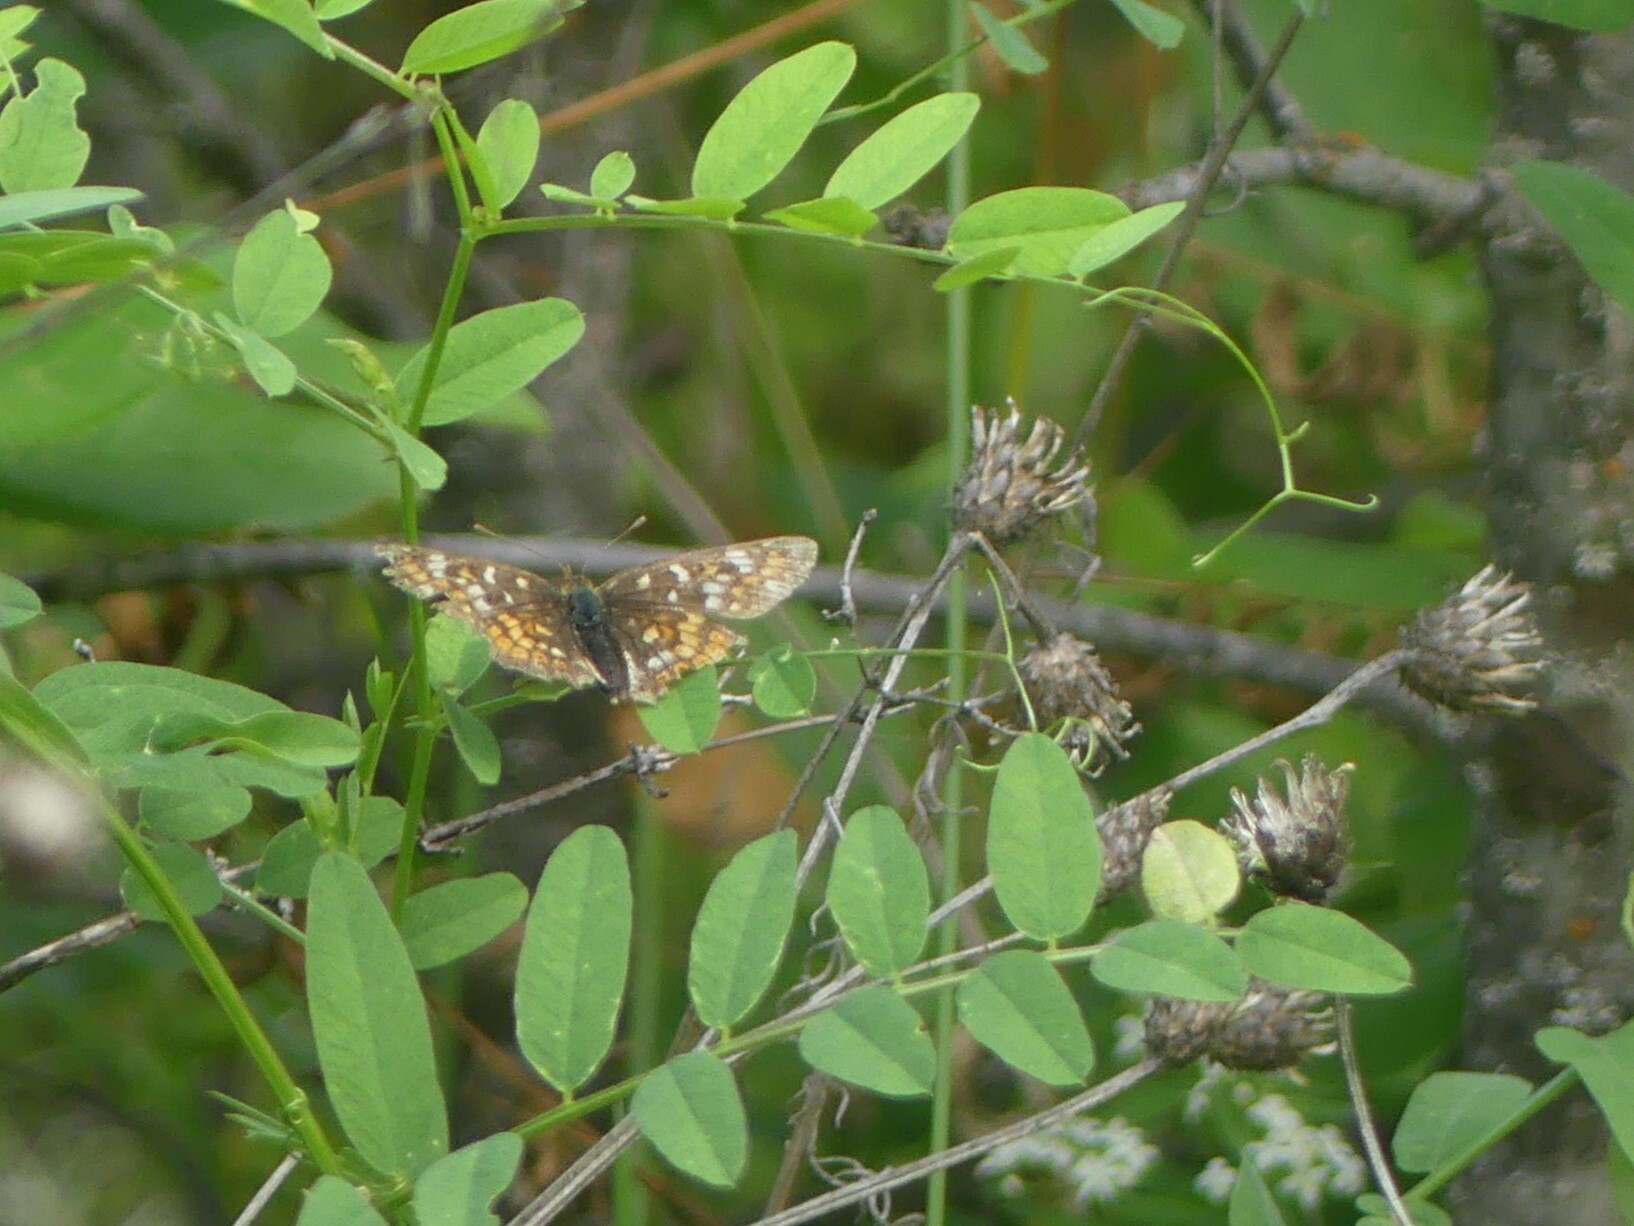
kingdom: Animalia
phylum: Arthropoda
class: Insecta
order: Lepidoptera
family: Nymphalidae
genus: Phyciodes
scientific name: Phyciodes tharos
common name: Pearl crescent
